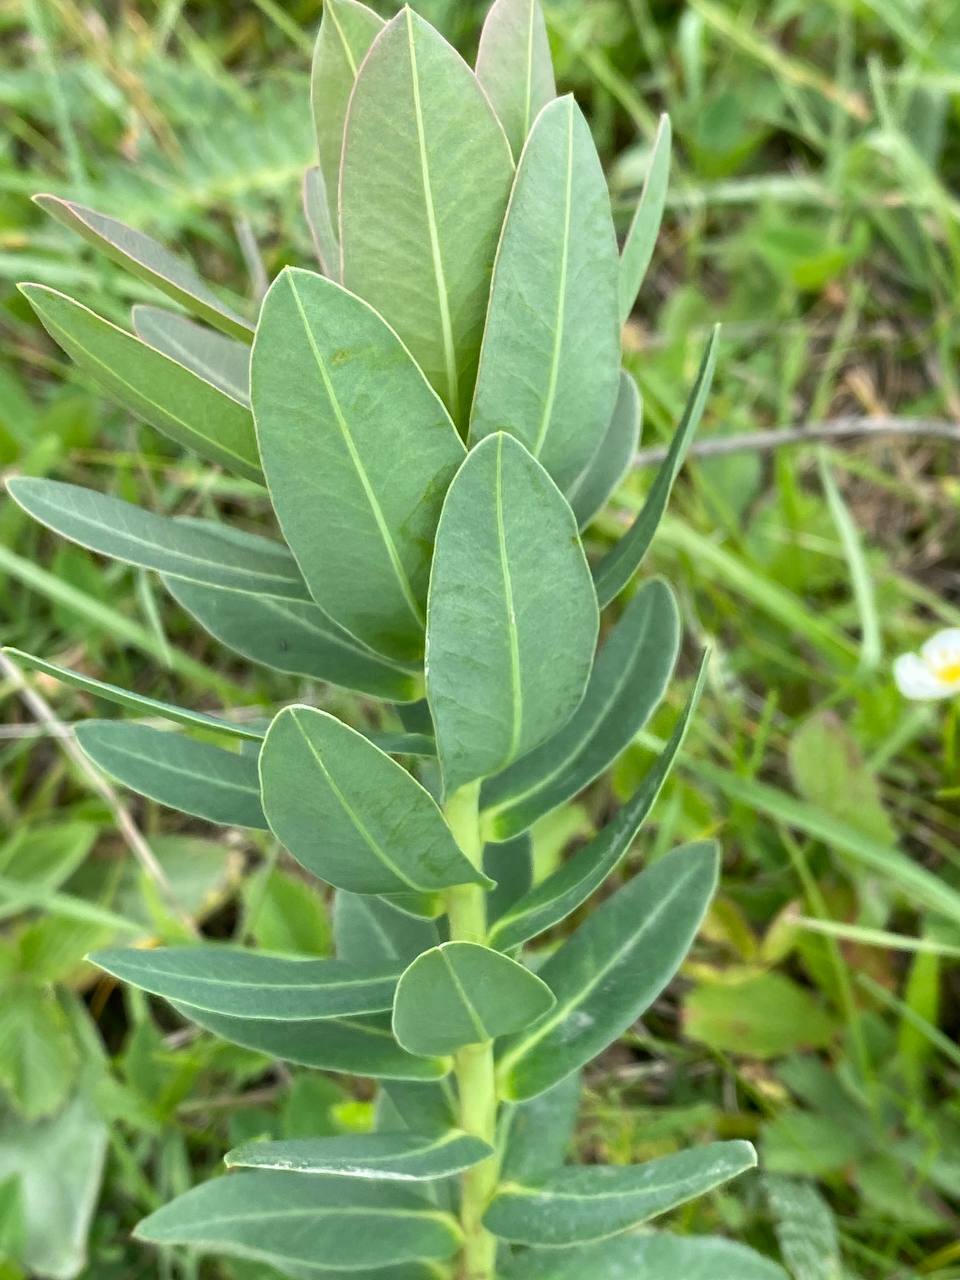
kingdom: Plantae
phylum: Tracheophyta
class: Magnoliopsida
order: Malpighiales
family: Euphorbiaceae
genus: Euphorbia
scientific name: Euphorbia iberica
